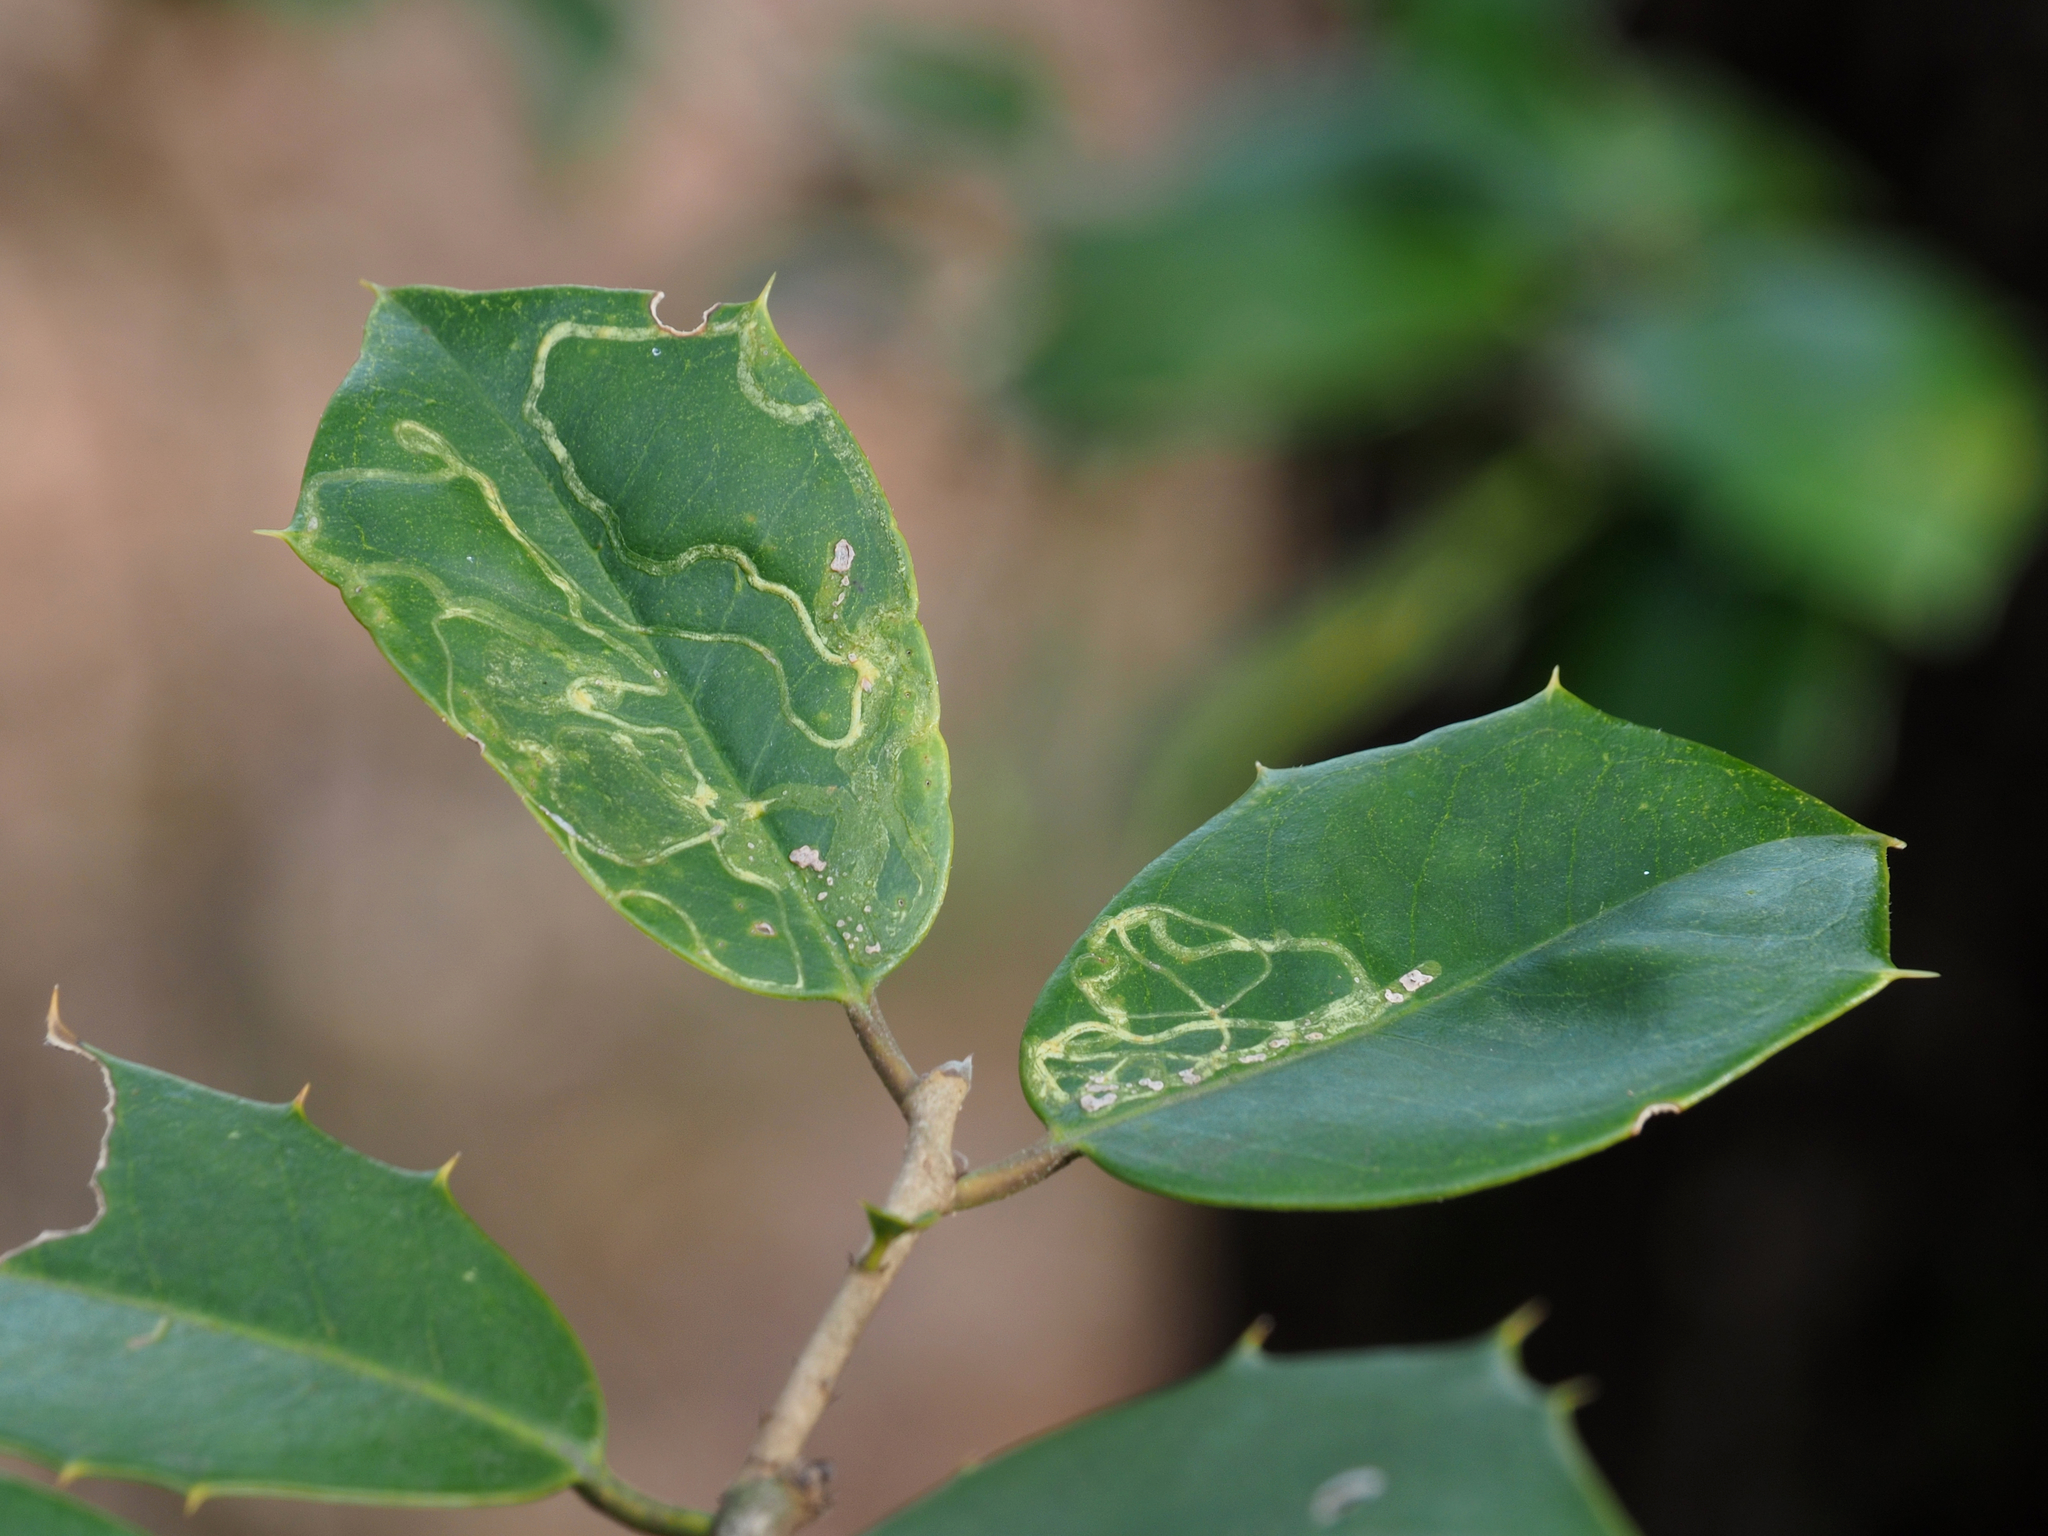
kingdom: Animalia
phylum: Arthropoda
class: Insecta
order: Diptera
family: Agromyzidae
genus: Phytomyza
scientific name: Phytomyza opacae
